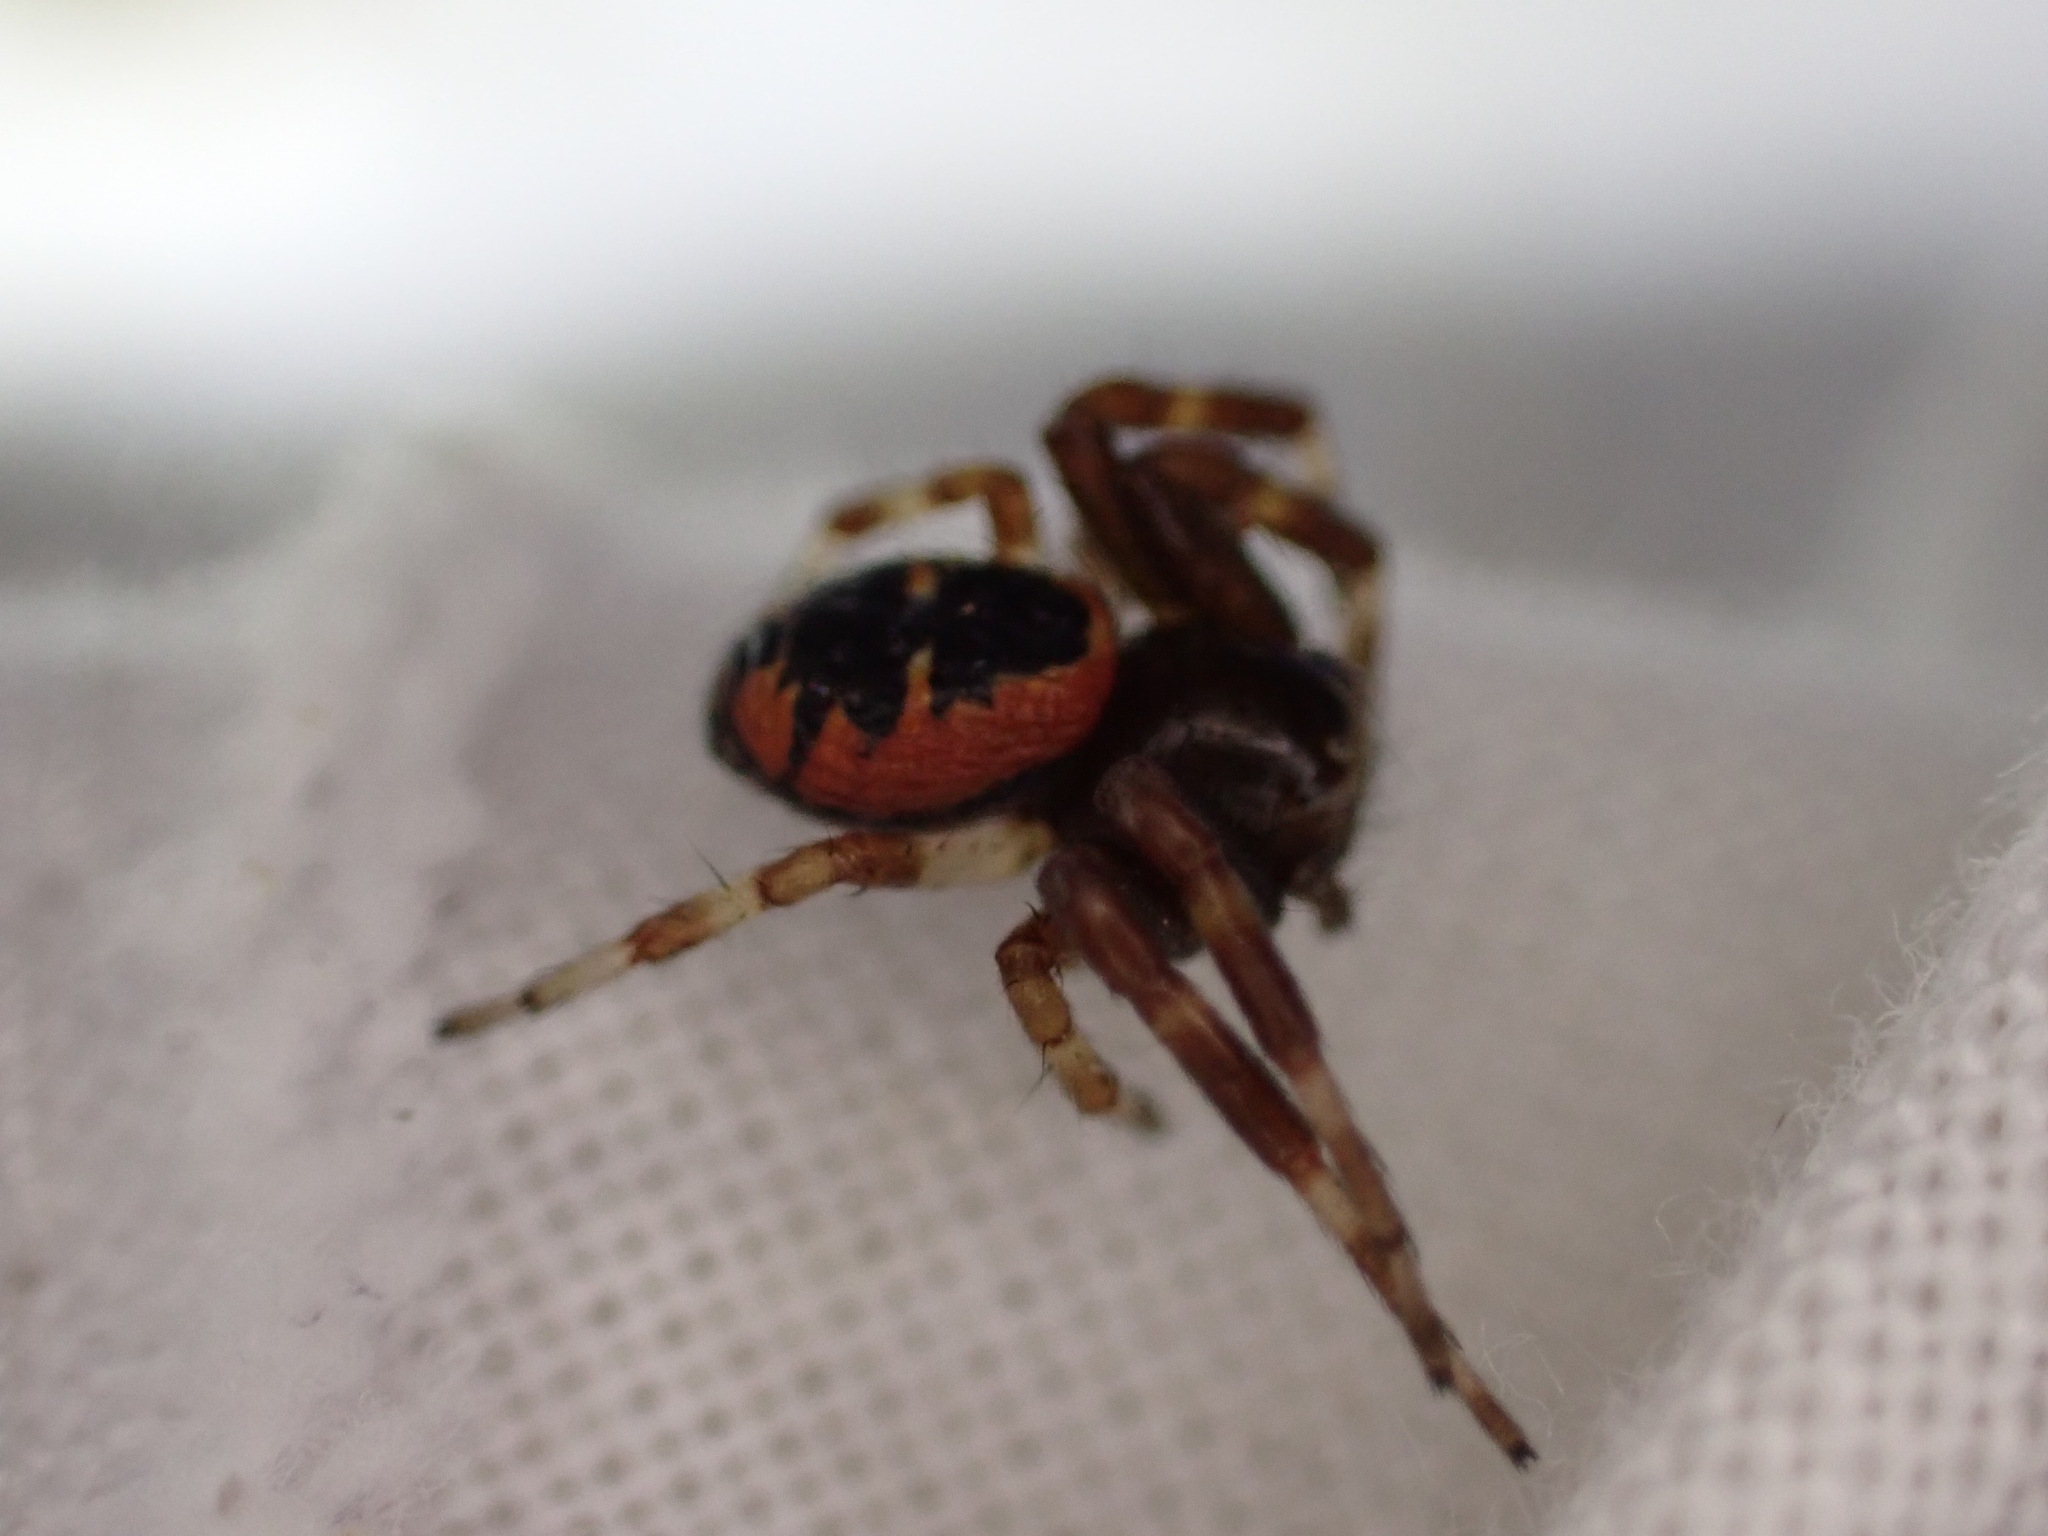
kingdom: Animalia
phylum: Arthropoda
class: Arachnida
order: Araneae
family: Thomisidae
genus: Synema
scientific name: Synema globosum
